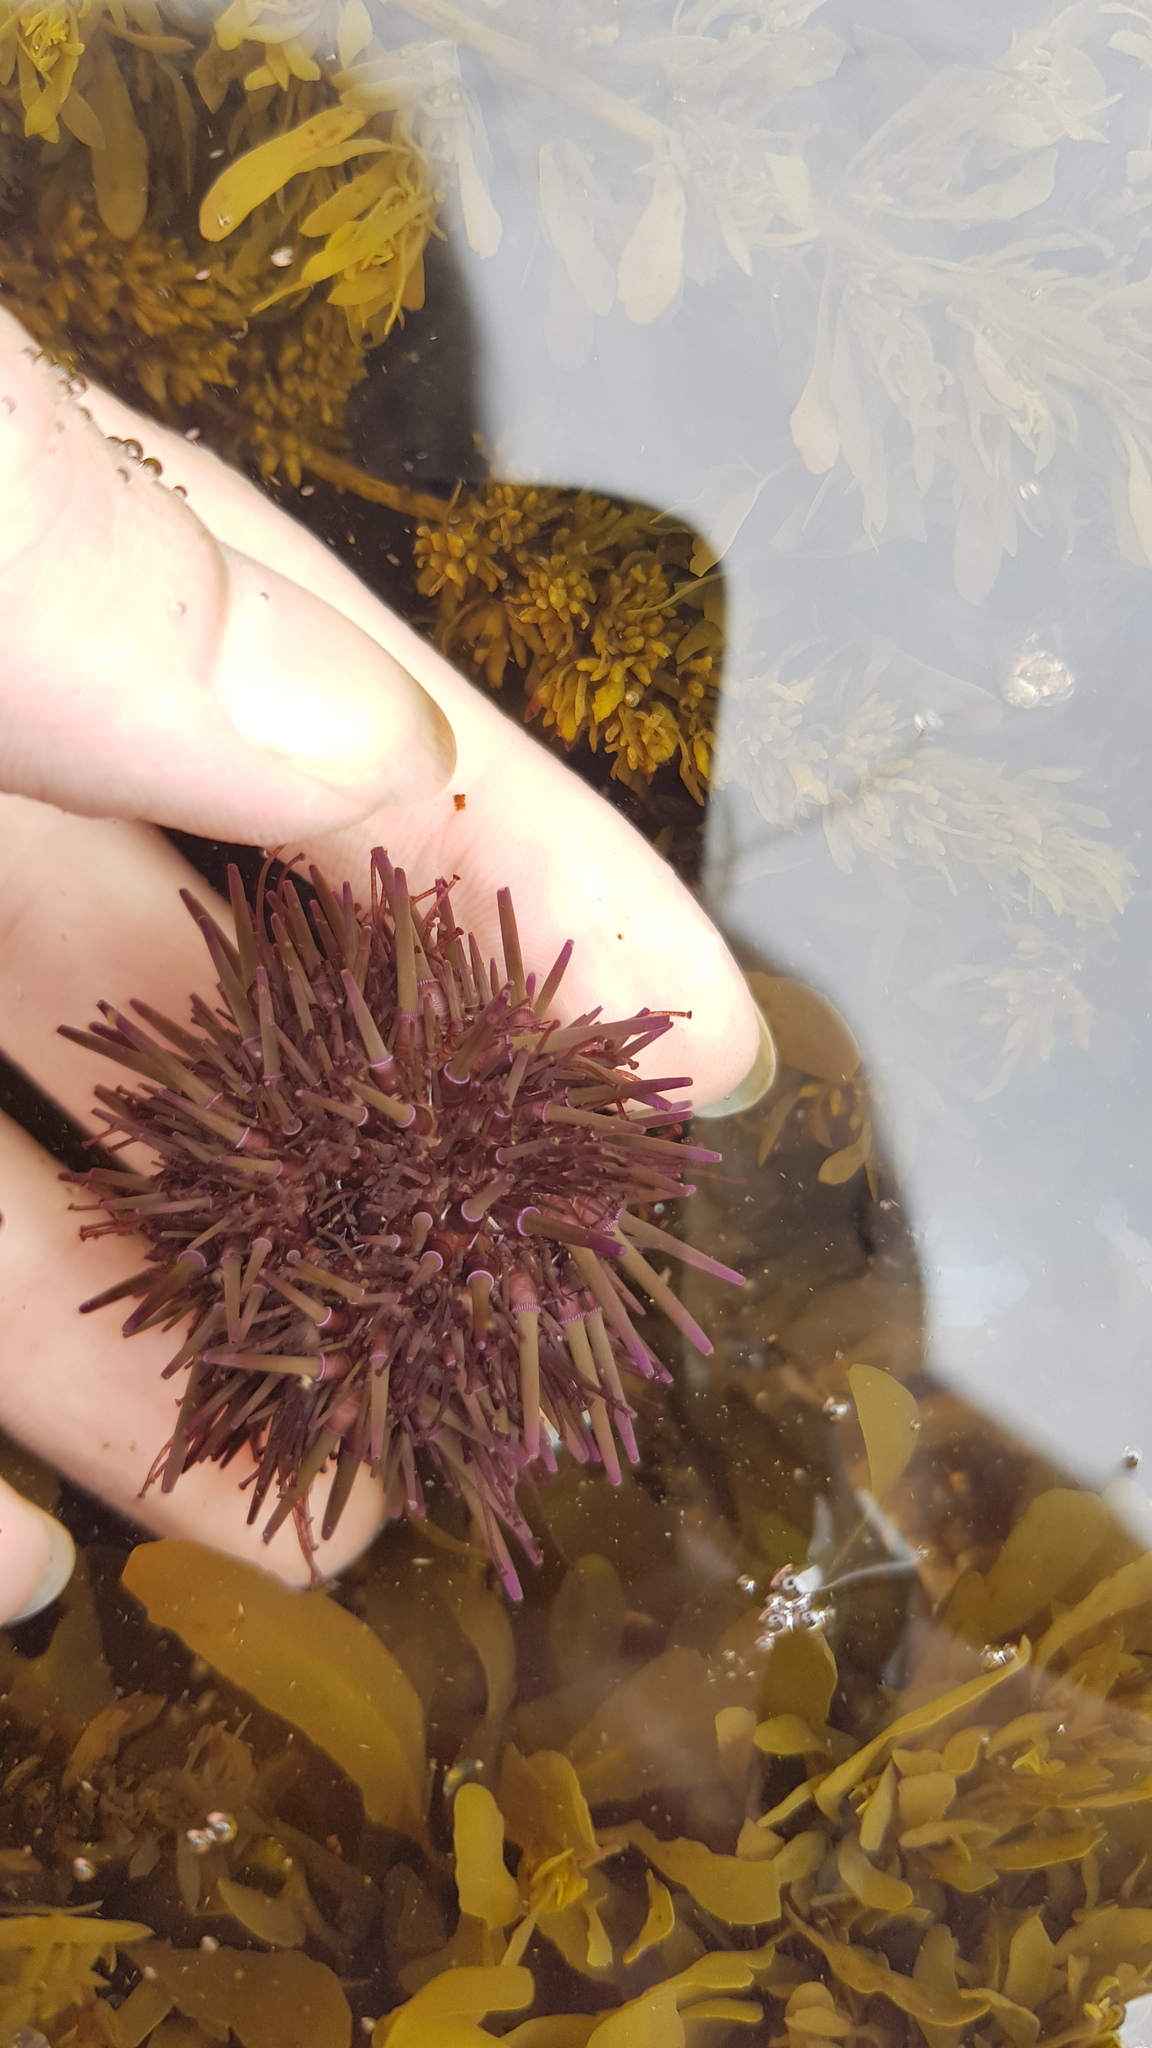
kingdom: Animalia
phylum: Echinodermata
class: Echinoidea
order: Camarodonta
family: Echinometridae
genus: Heliocidaris
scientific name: Heliocidaris erythrogramma
